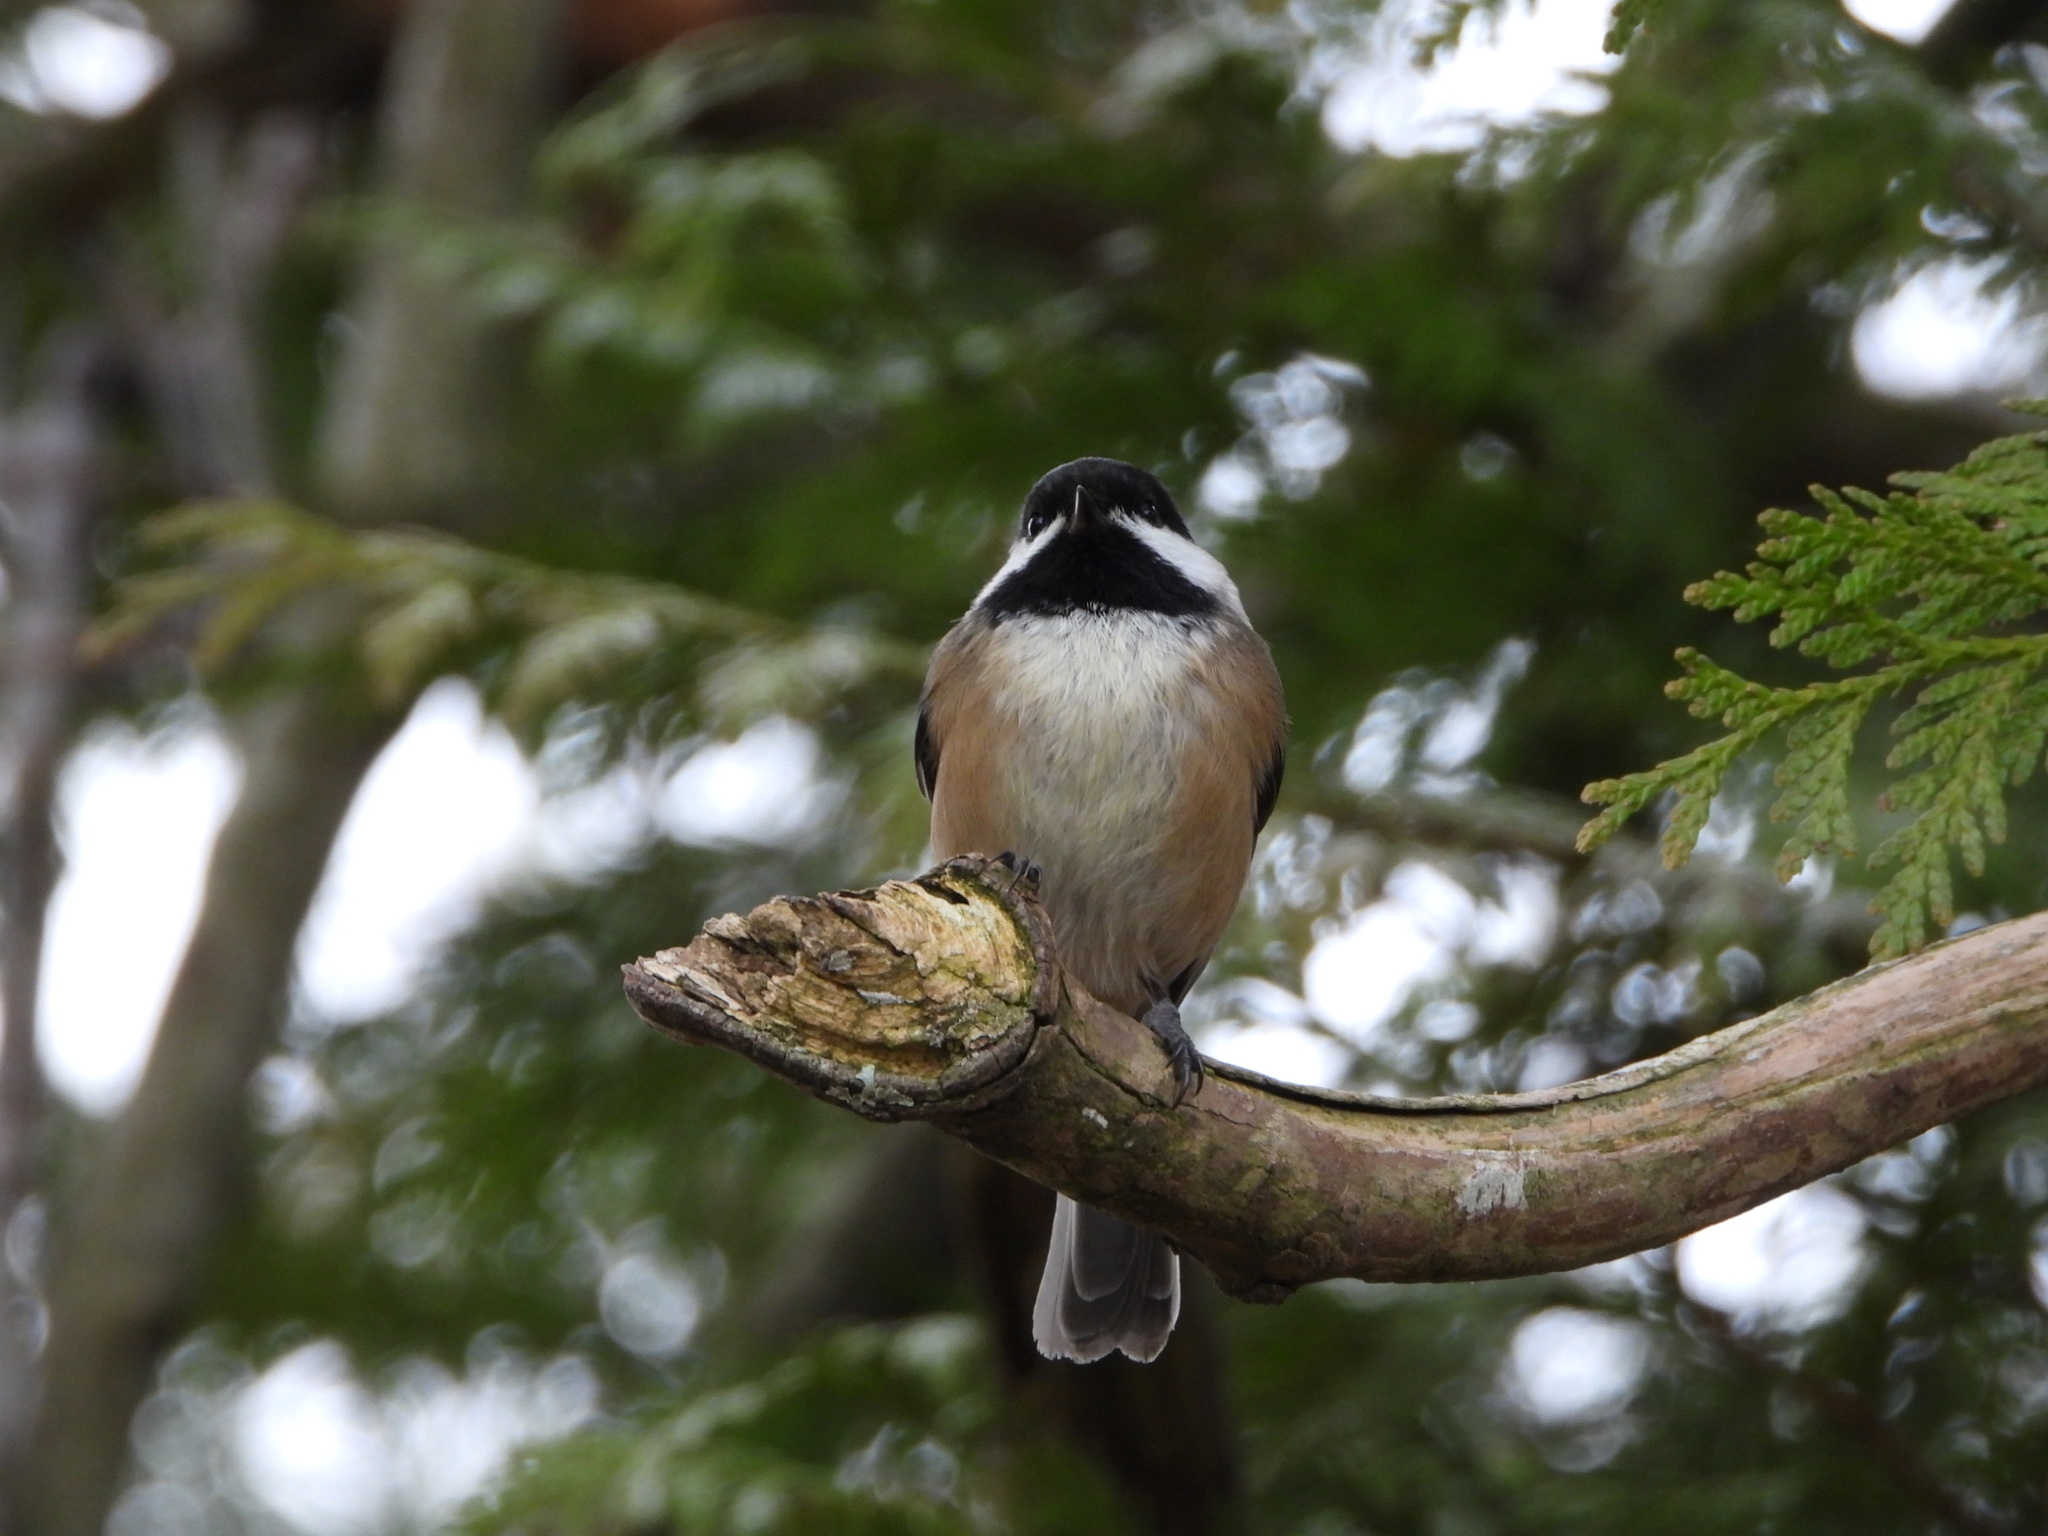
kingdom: Animalia
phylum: Chordata
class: Aves
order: Passeriformes
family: Paridae
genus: Poecile
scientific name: Poecile atricapillus
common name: Black-capped chickadee
